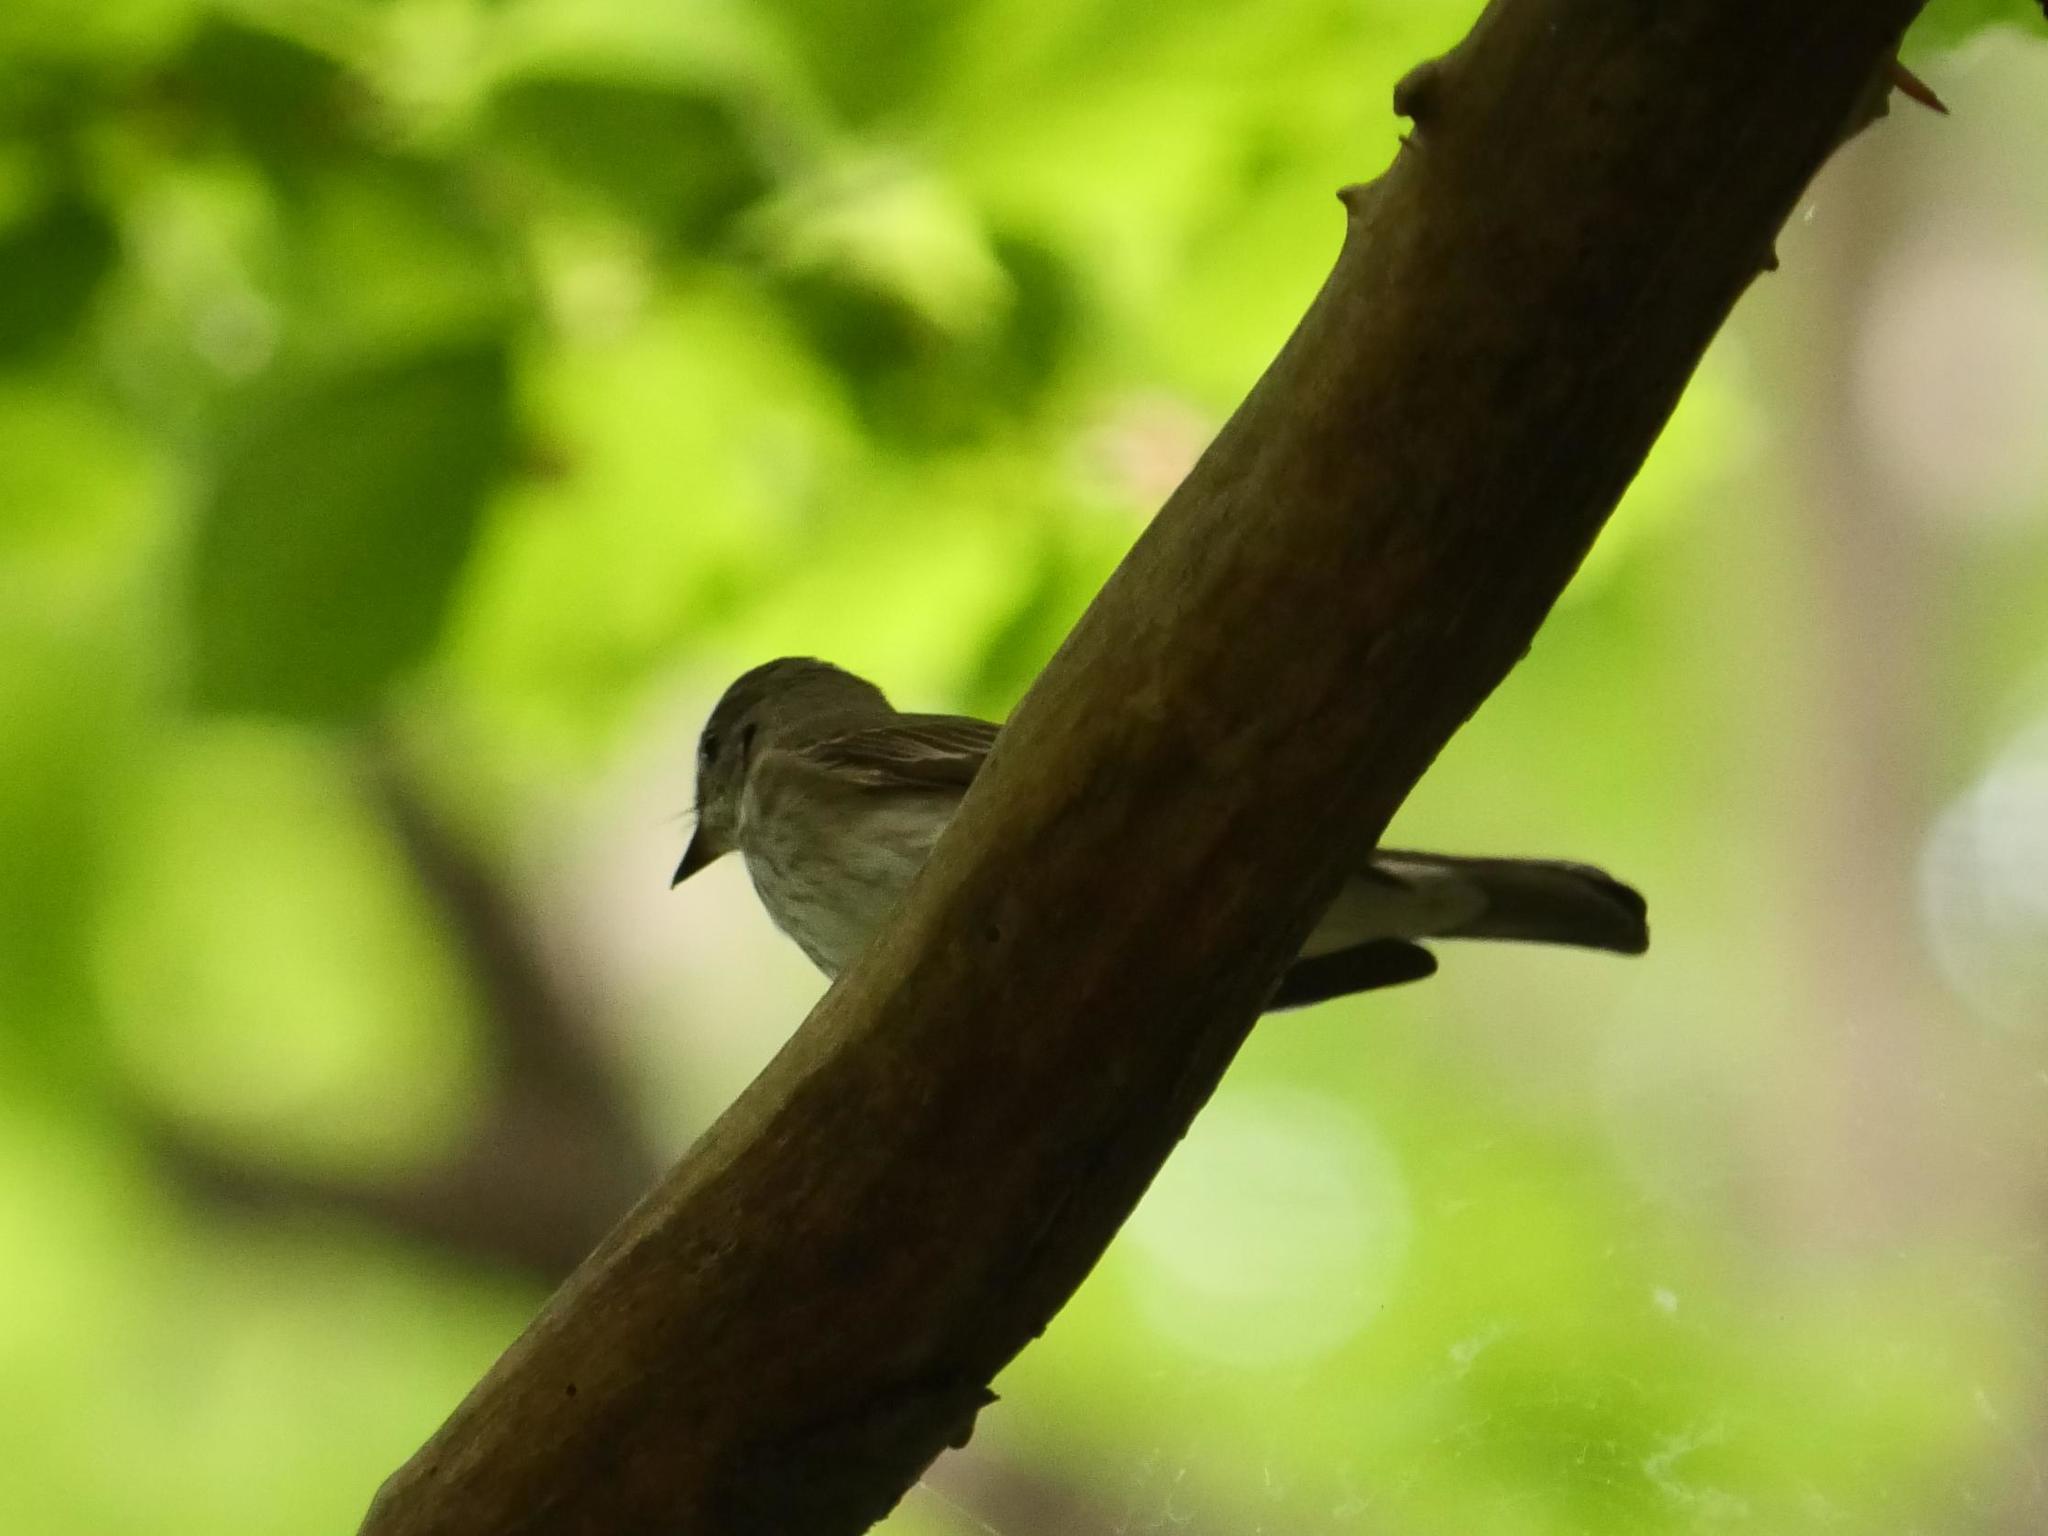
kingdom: Animalia
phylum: Chordata
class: Aves
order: Passeriformes
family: Muscicapidae
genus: Muscicapa
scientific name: Muscicapa striata
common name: Spotted flycatcher
